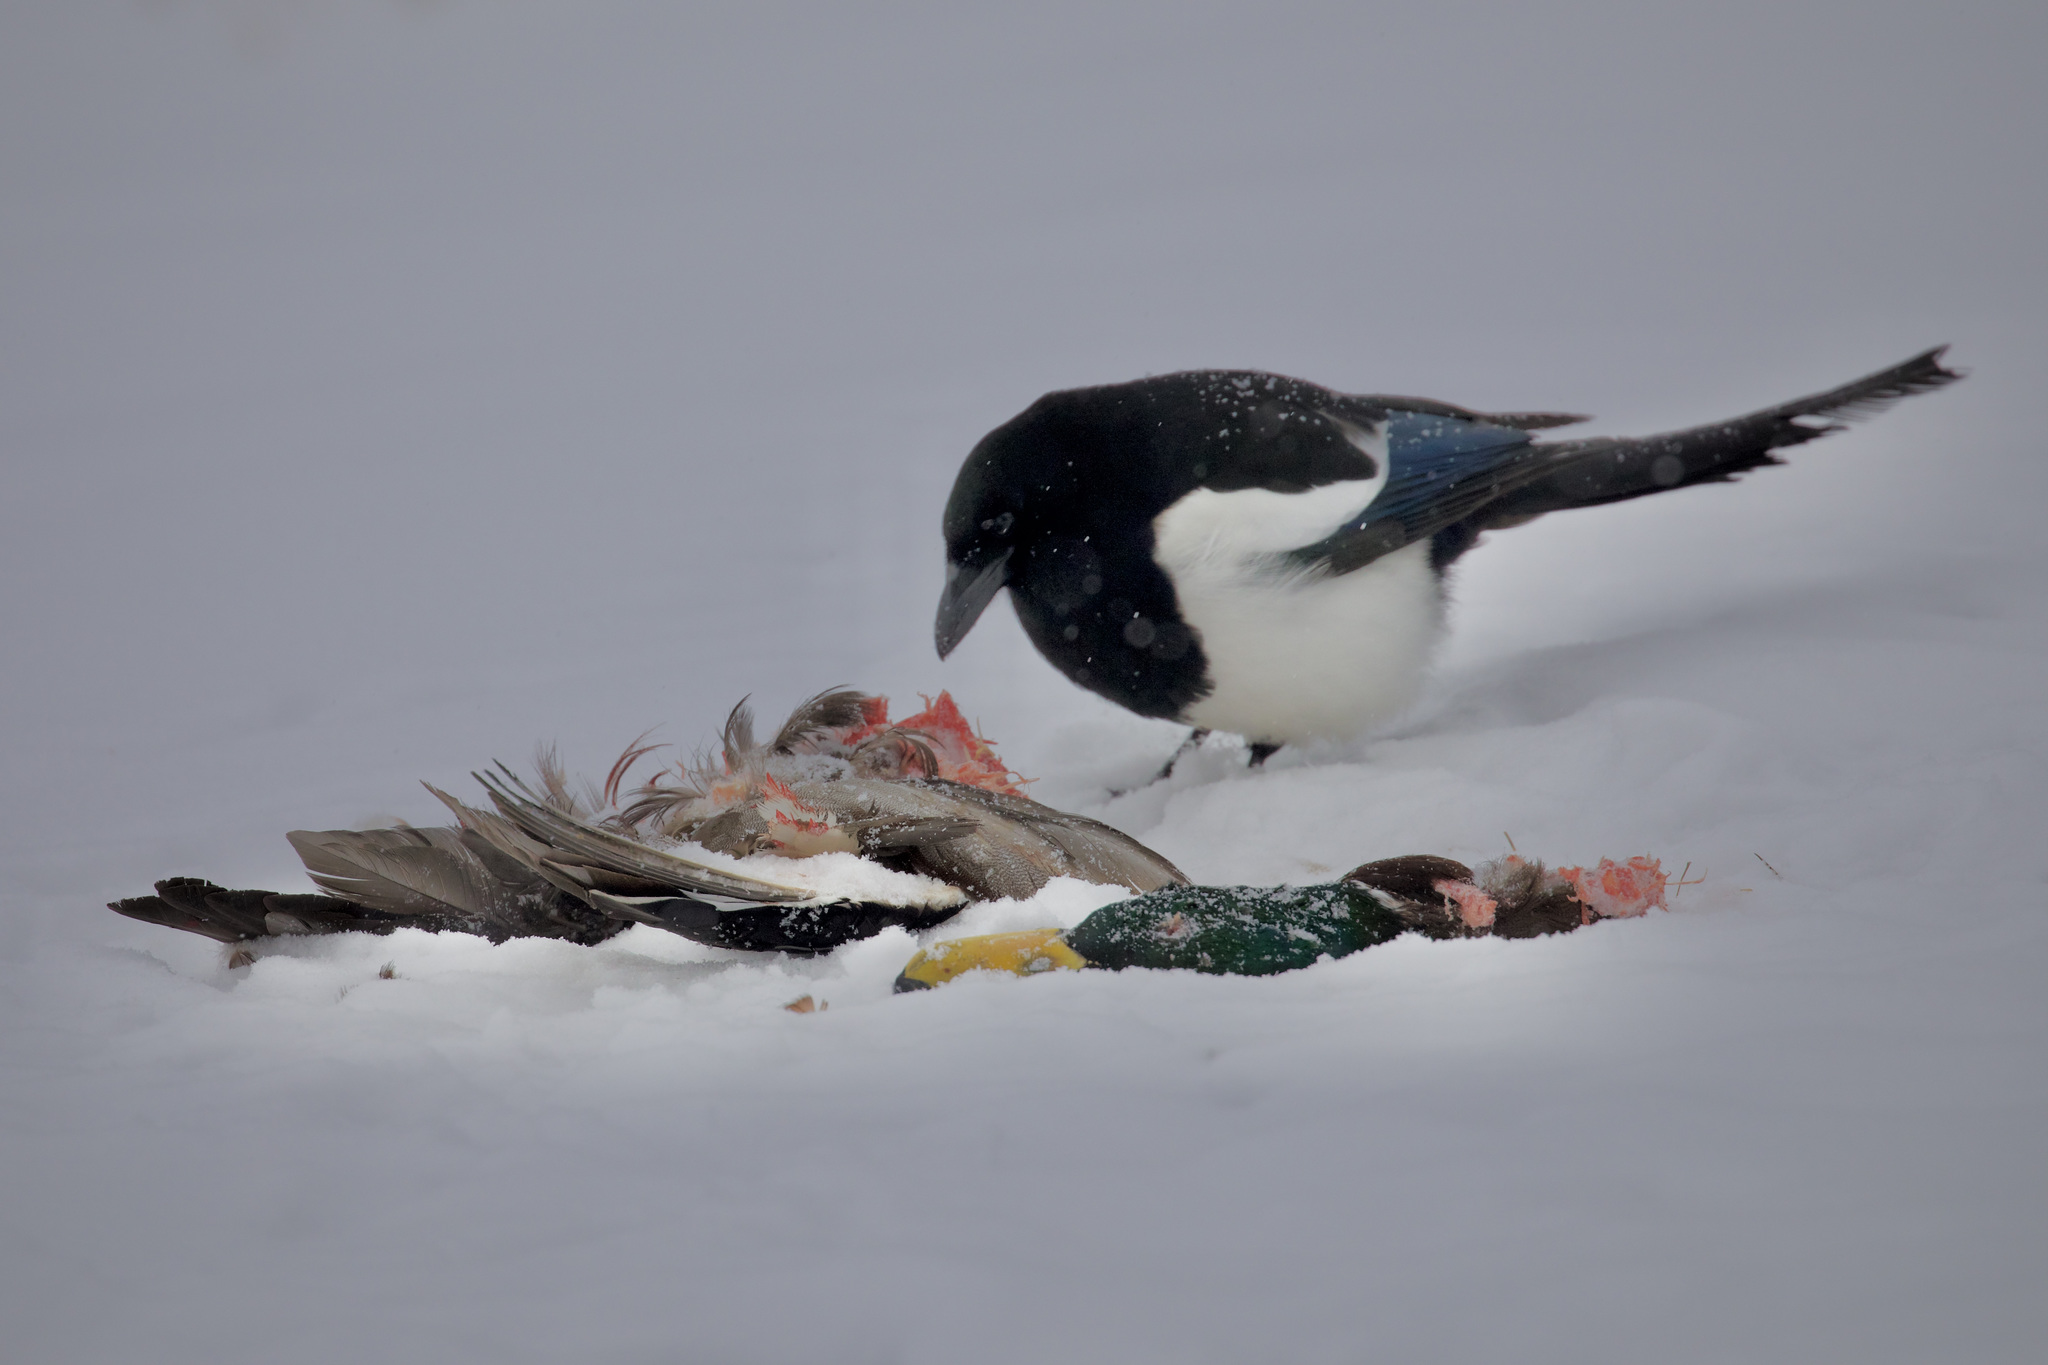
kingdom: Animalia
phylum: Chordata
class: Aves
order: Passeriformes
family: Corvidae
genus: Pica
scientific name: Pica hudsonia
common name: Black-billed magpie
